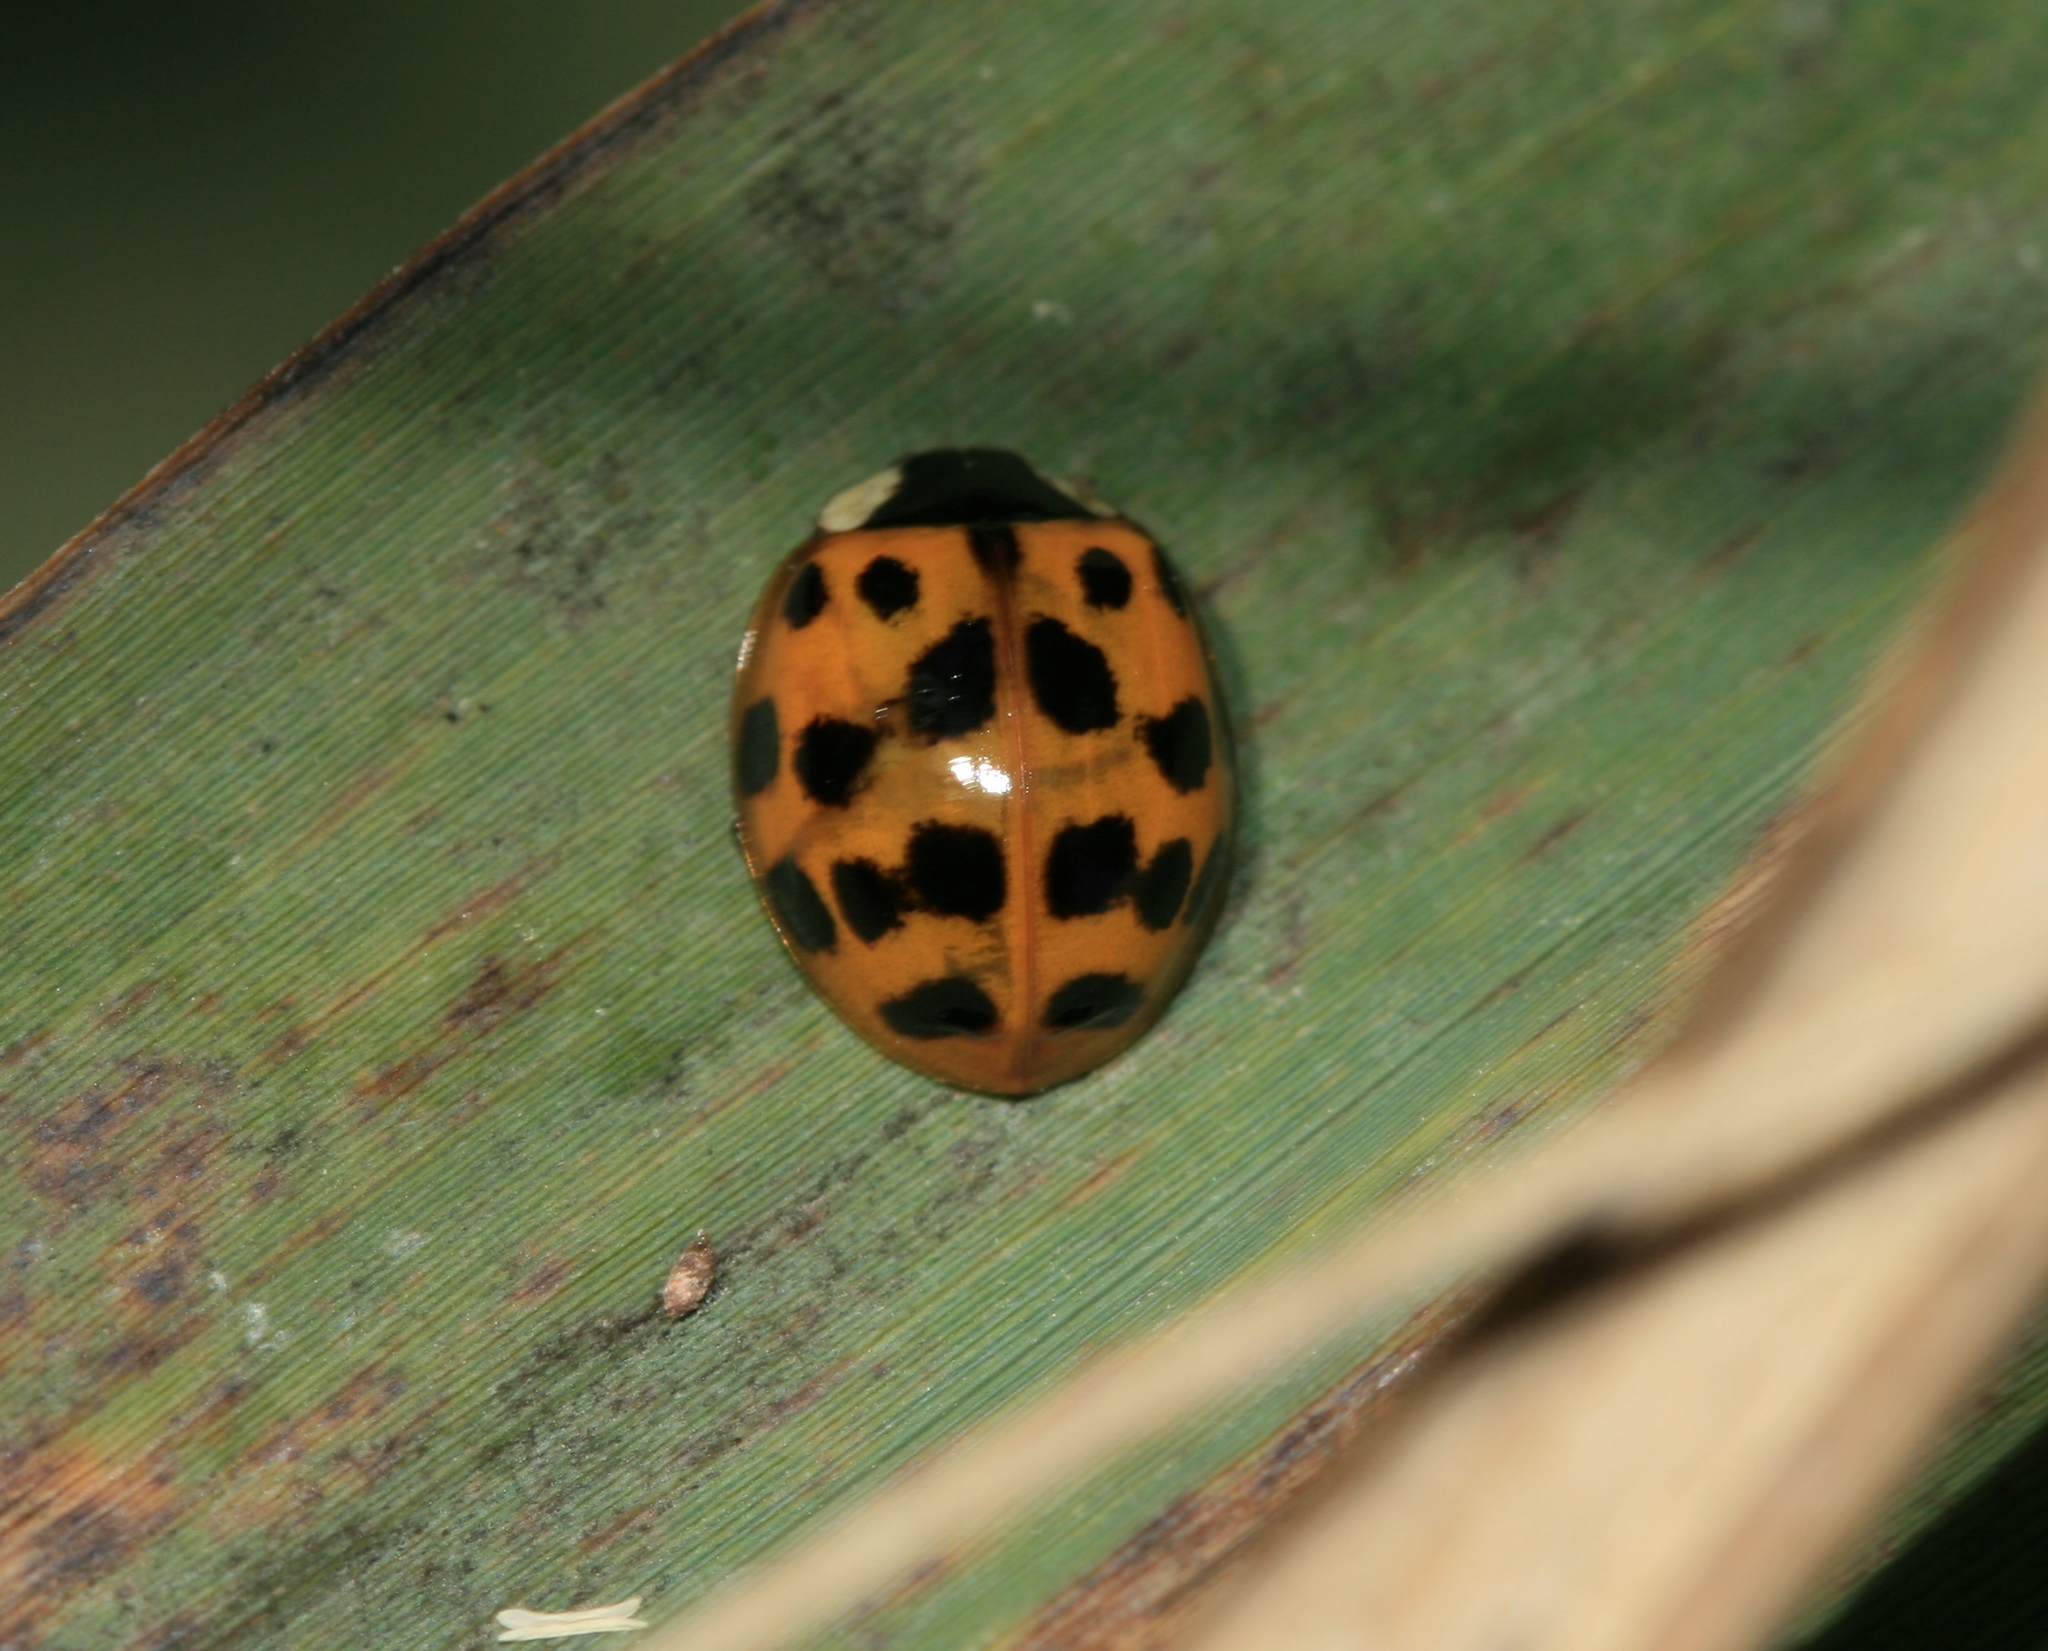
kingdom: Animalia
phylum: Arthropoda
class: Insecta
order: Coleoptera
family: Coccinellidae
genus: Harmonia
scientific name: Harmonia axyridis
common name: Harlequin ladybird
